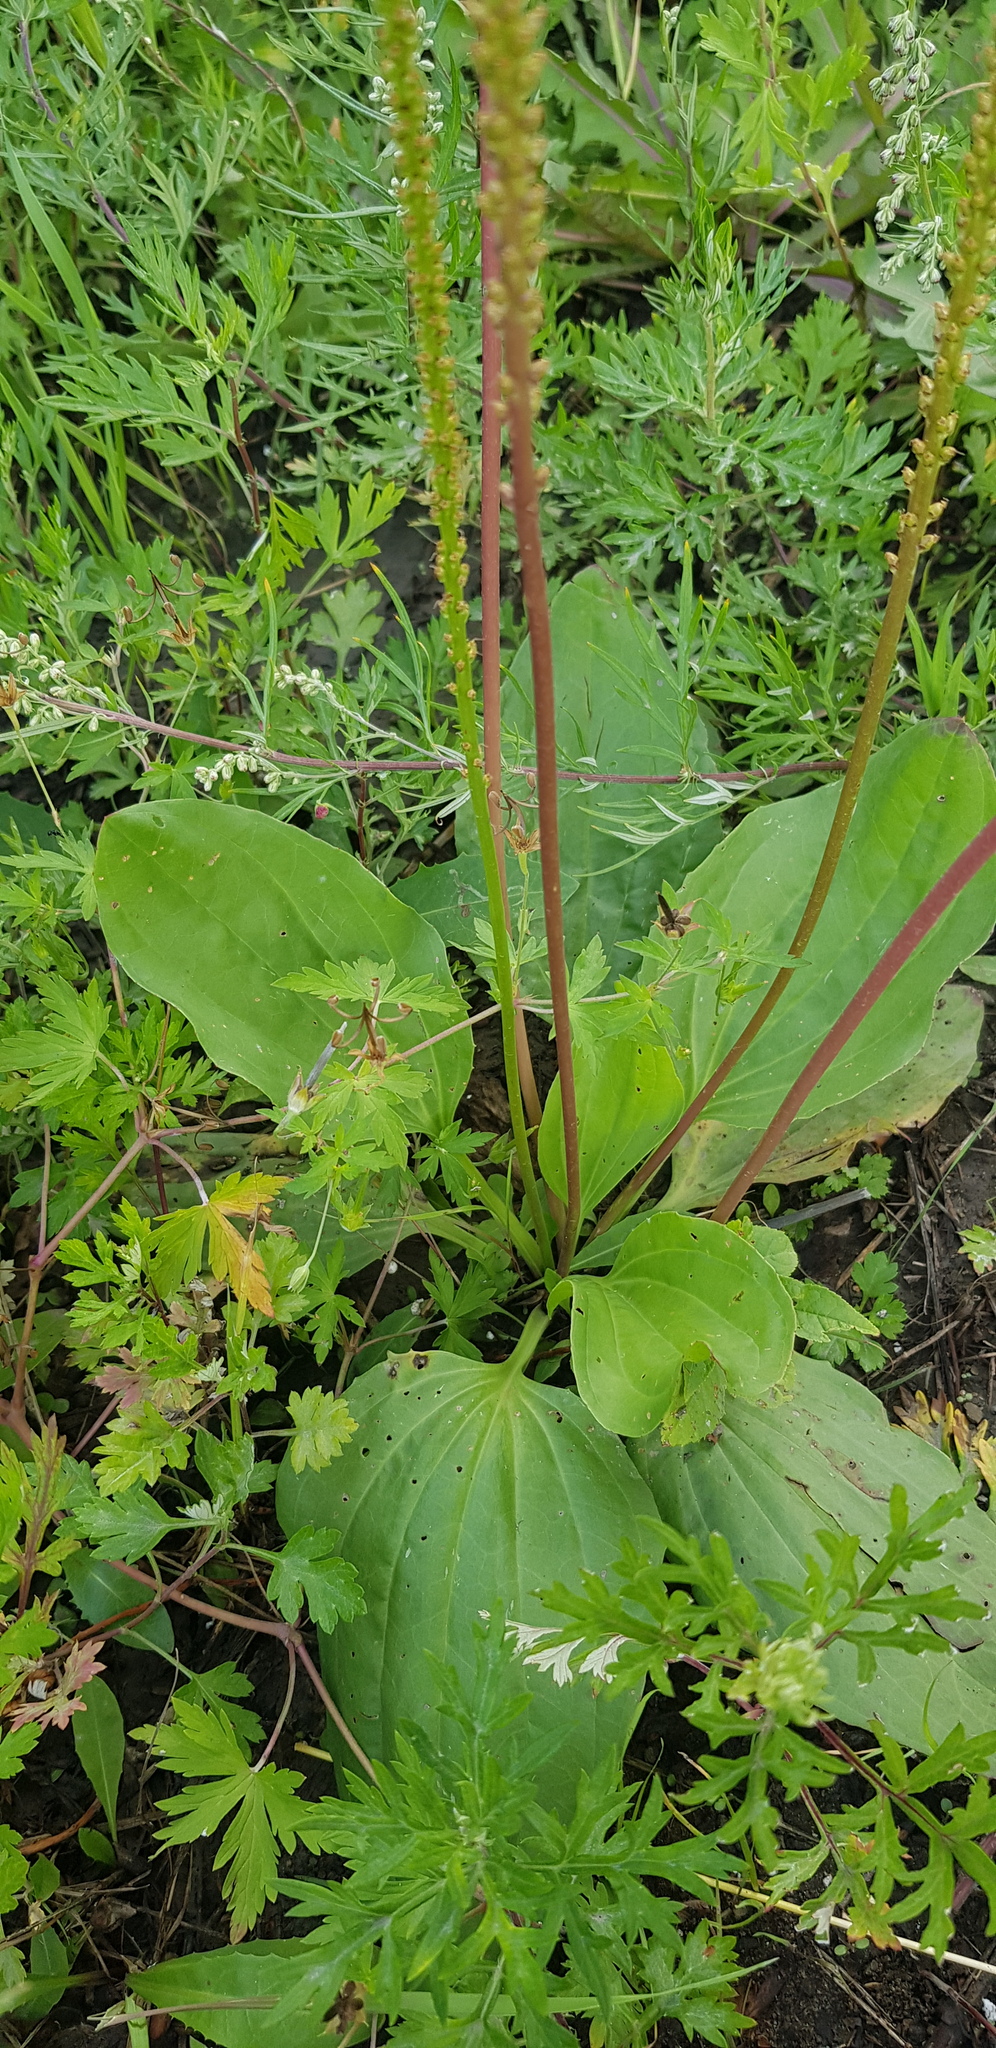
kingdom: Plantae
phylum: Tracheophyta
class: Magnoliopsida
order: Lamiales
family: Plantaginaceae
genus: Plantago
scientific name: Plantago major
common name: Common plantain
